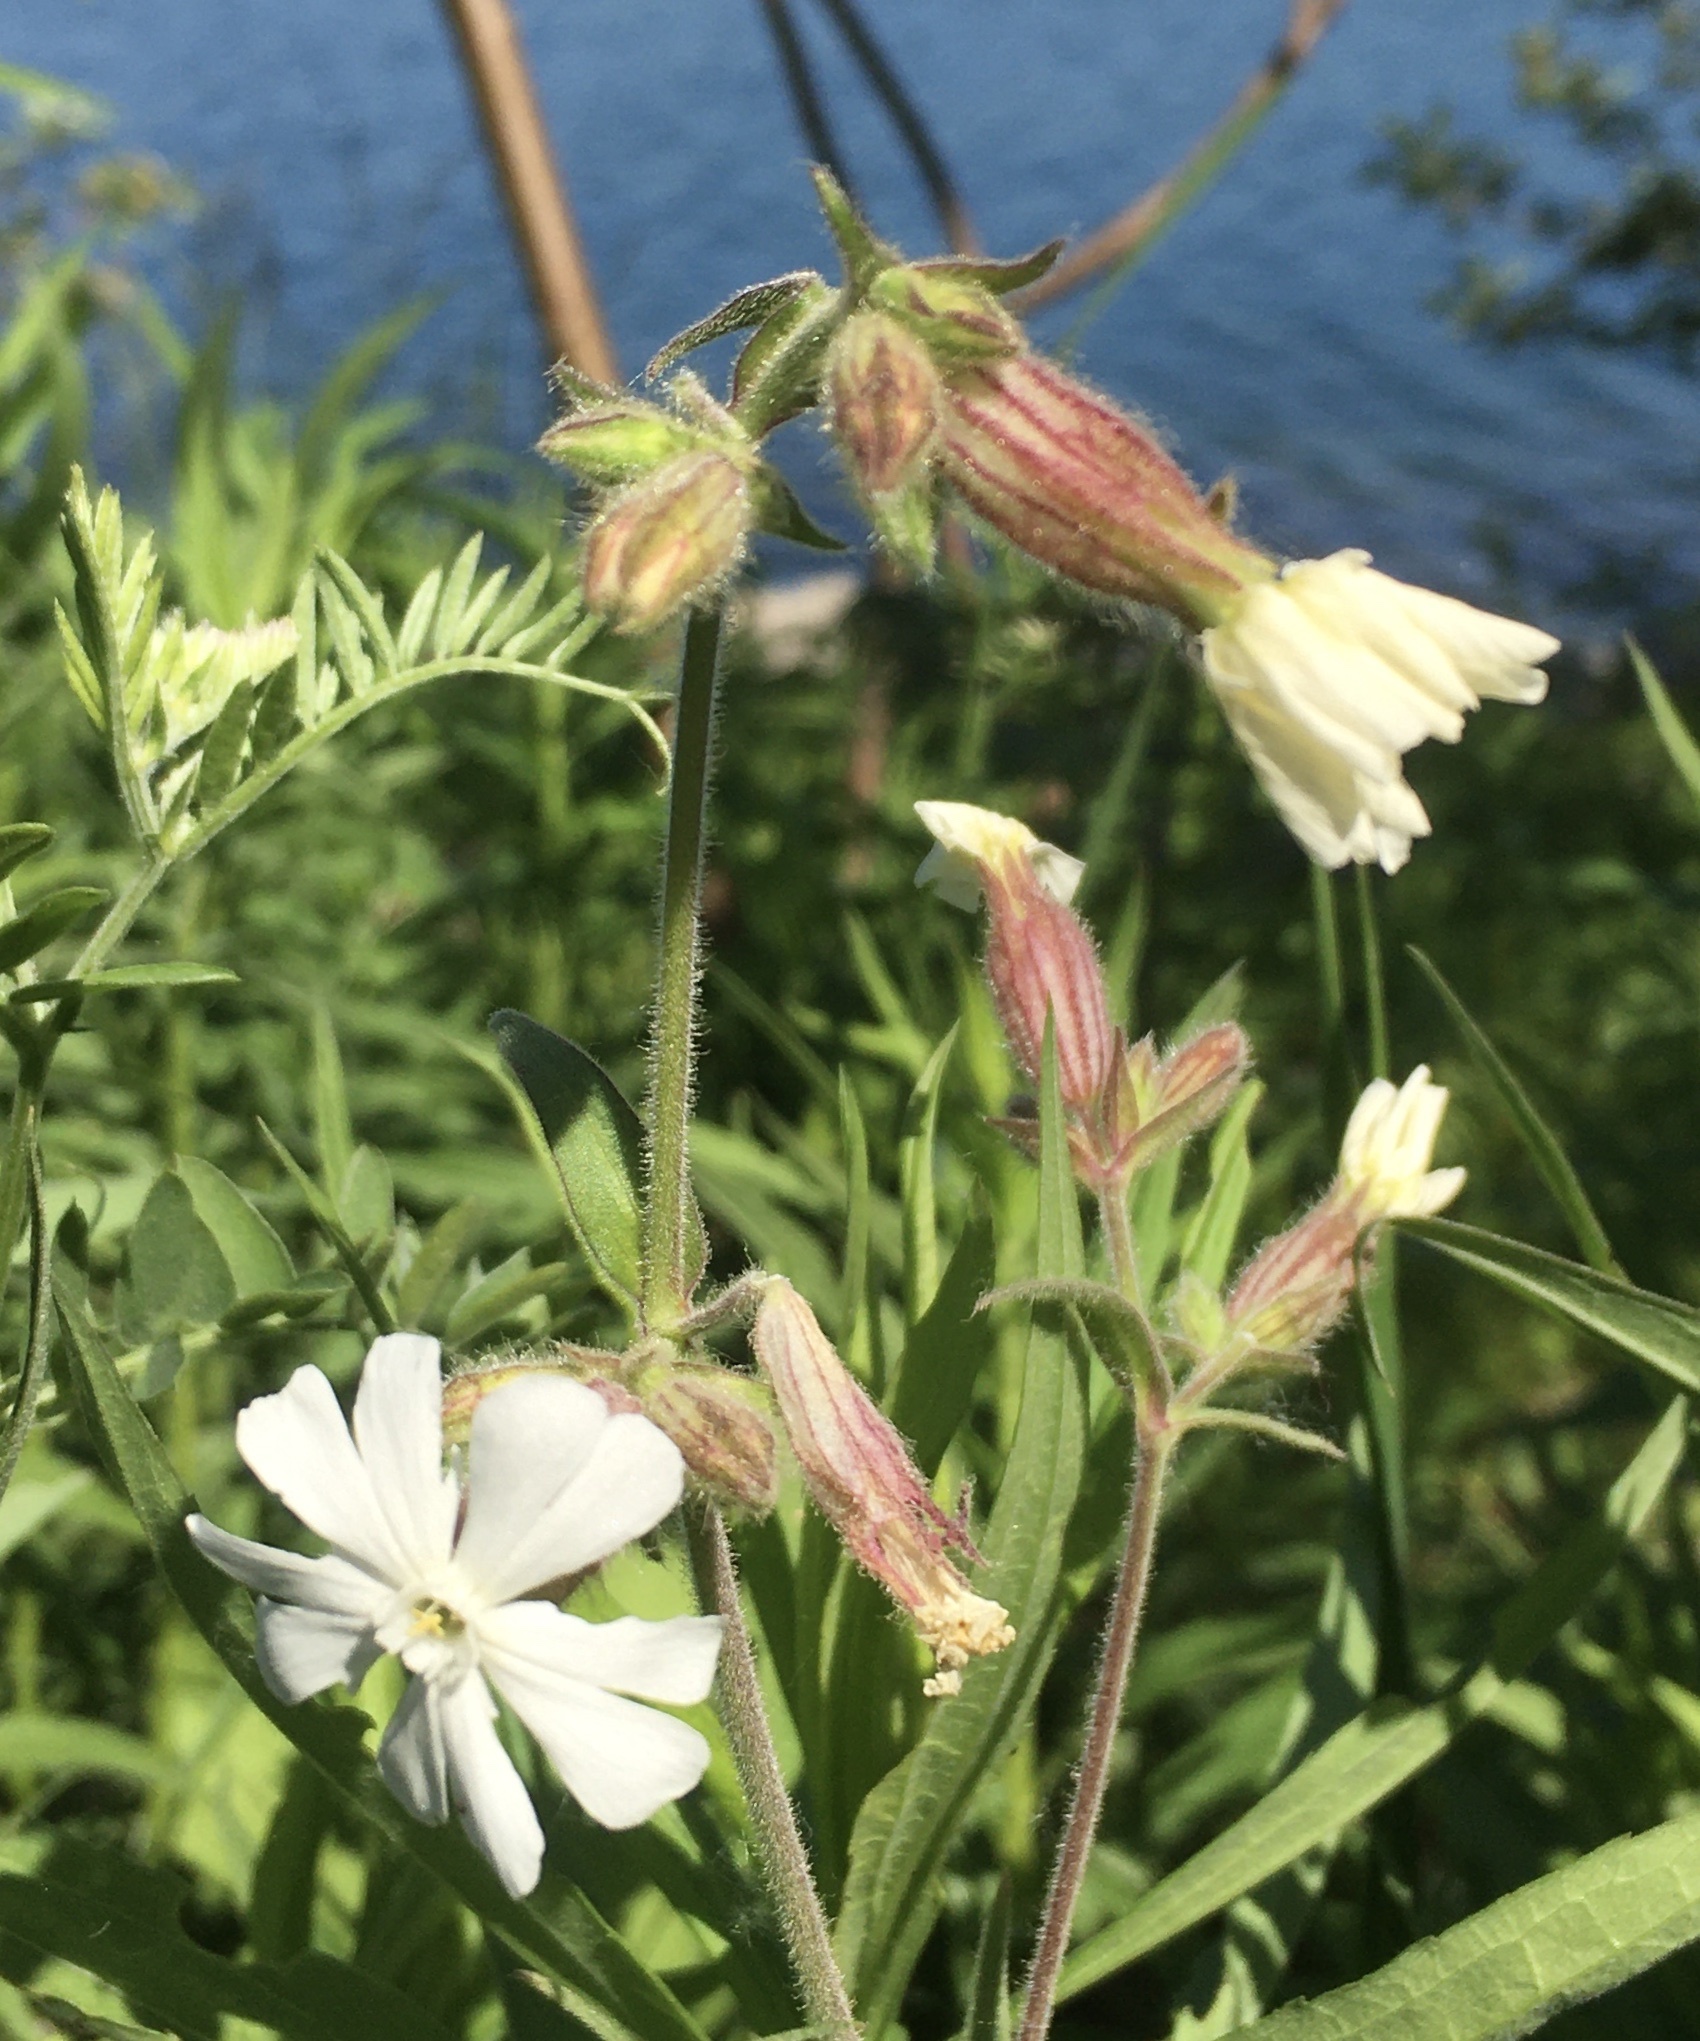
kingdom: Plantae
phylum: Tracheophyta
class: Magnoliopsida
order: Caryophyllales
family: Caryophyllaceae
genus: Silene
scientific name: Silene latifolia
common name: White campion
